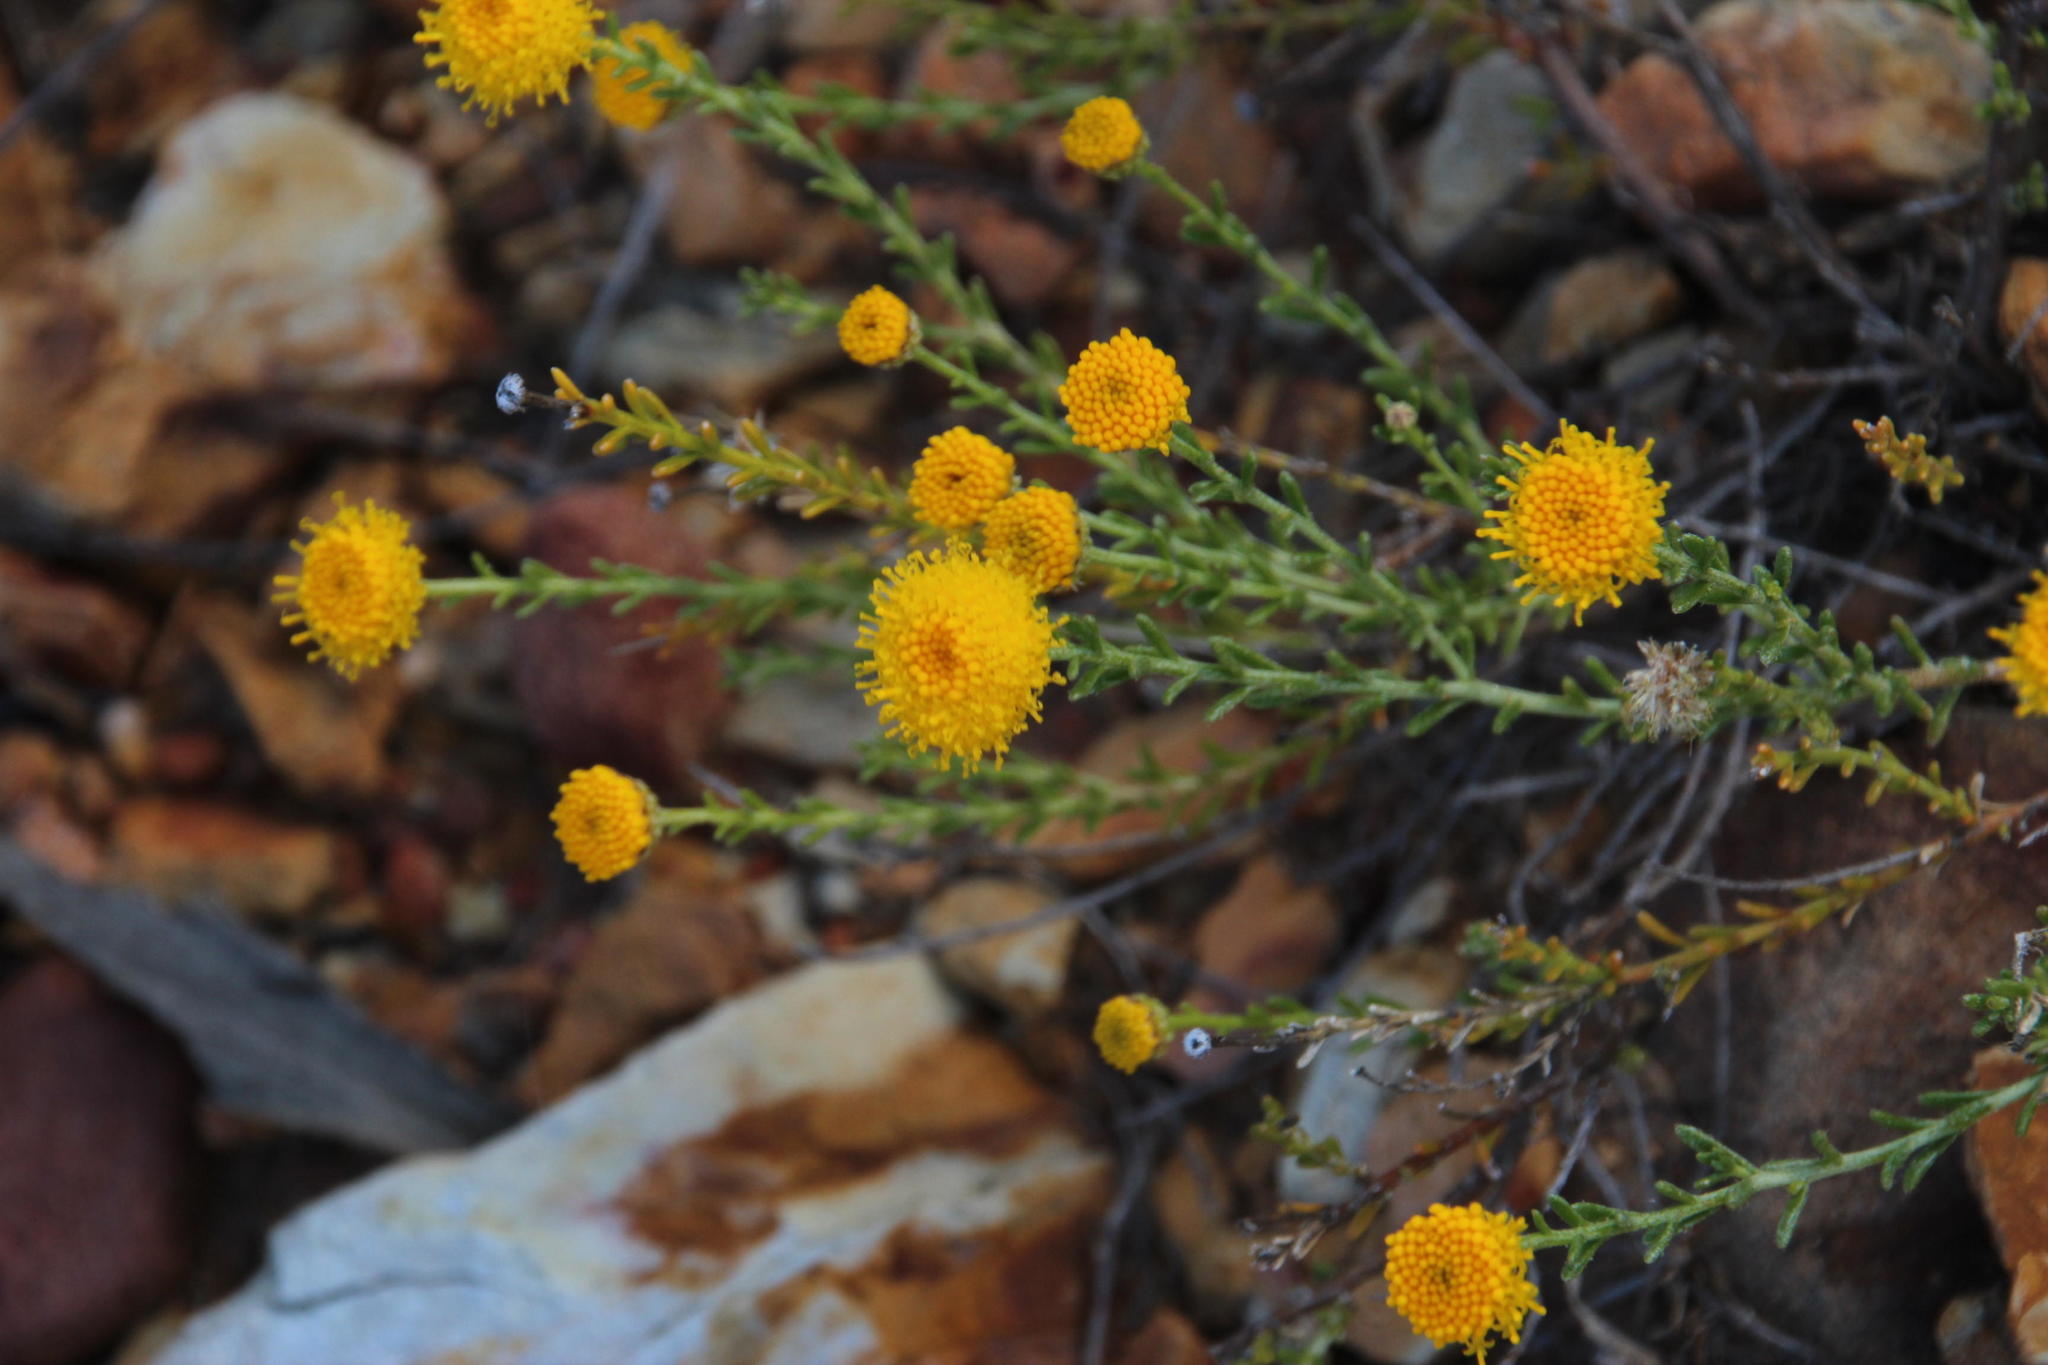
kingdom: Plantae
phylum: Tracheophyta
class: Magnoliopsida
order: Asterales
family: Asteraceae
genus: Chrysocoma
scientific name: Chrysocoma ciliata
